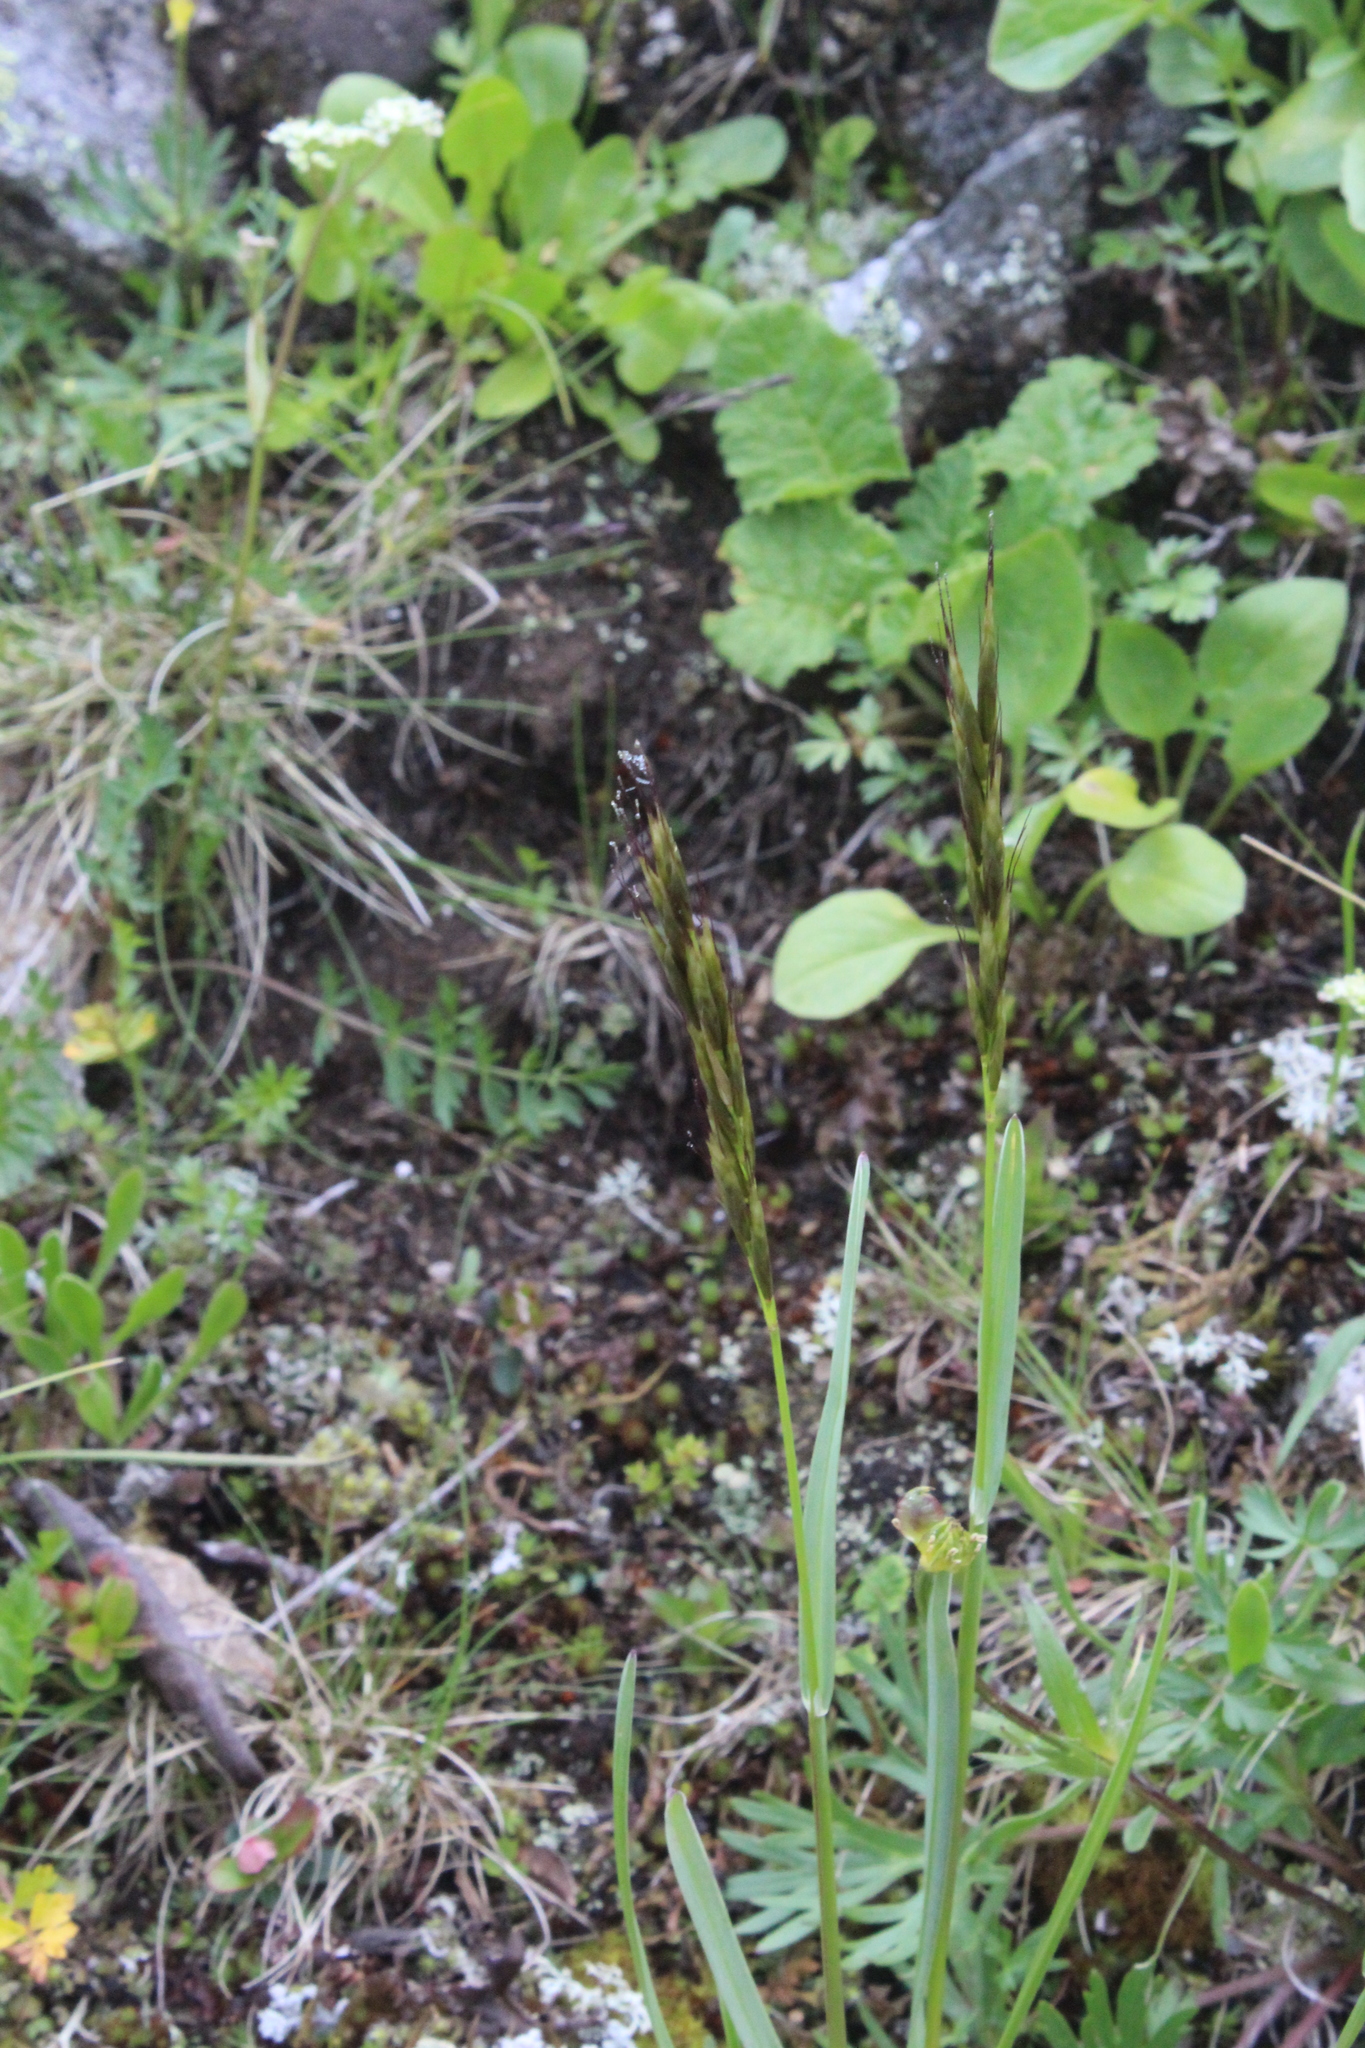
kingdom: Plantae
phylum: Tracheophyta
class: Liliopsida
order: Poales
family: Poaceae
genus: Helictochloa
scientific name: Helictochloa versicolor
